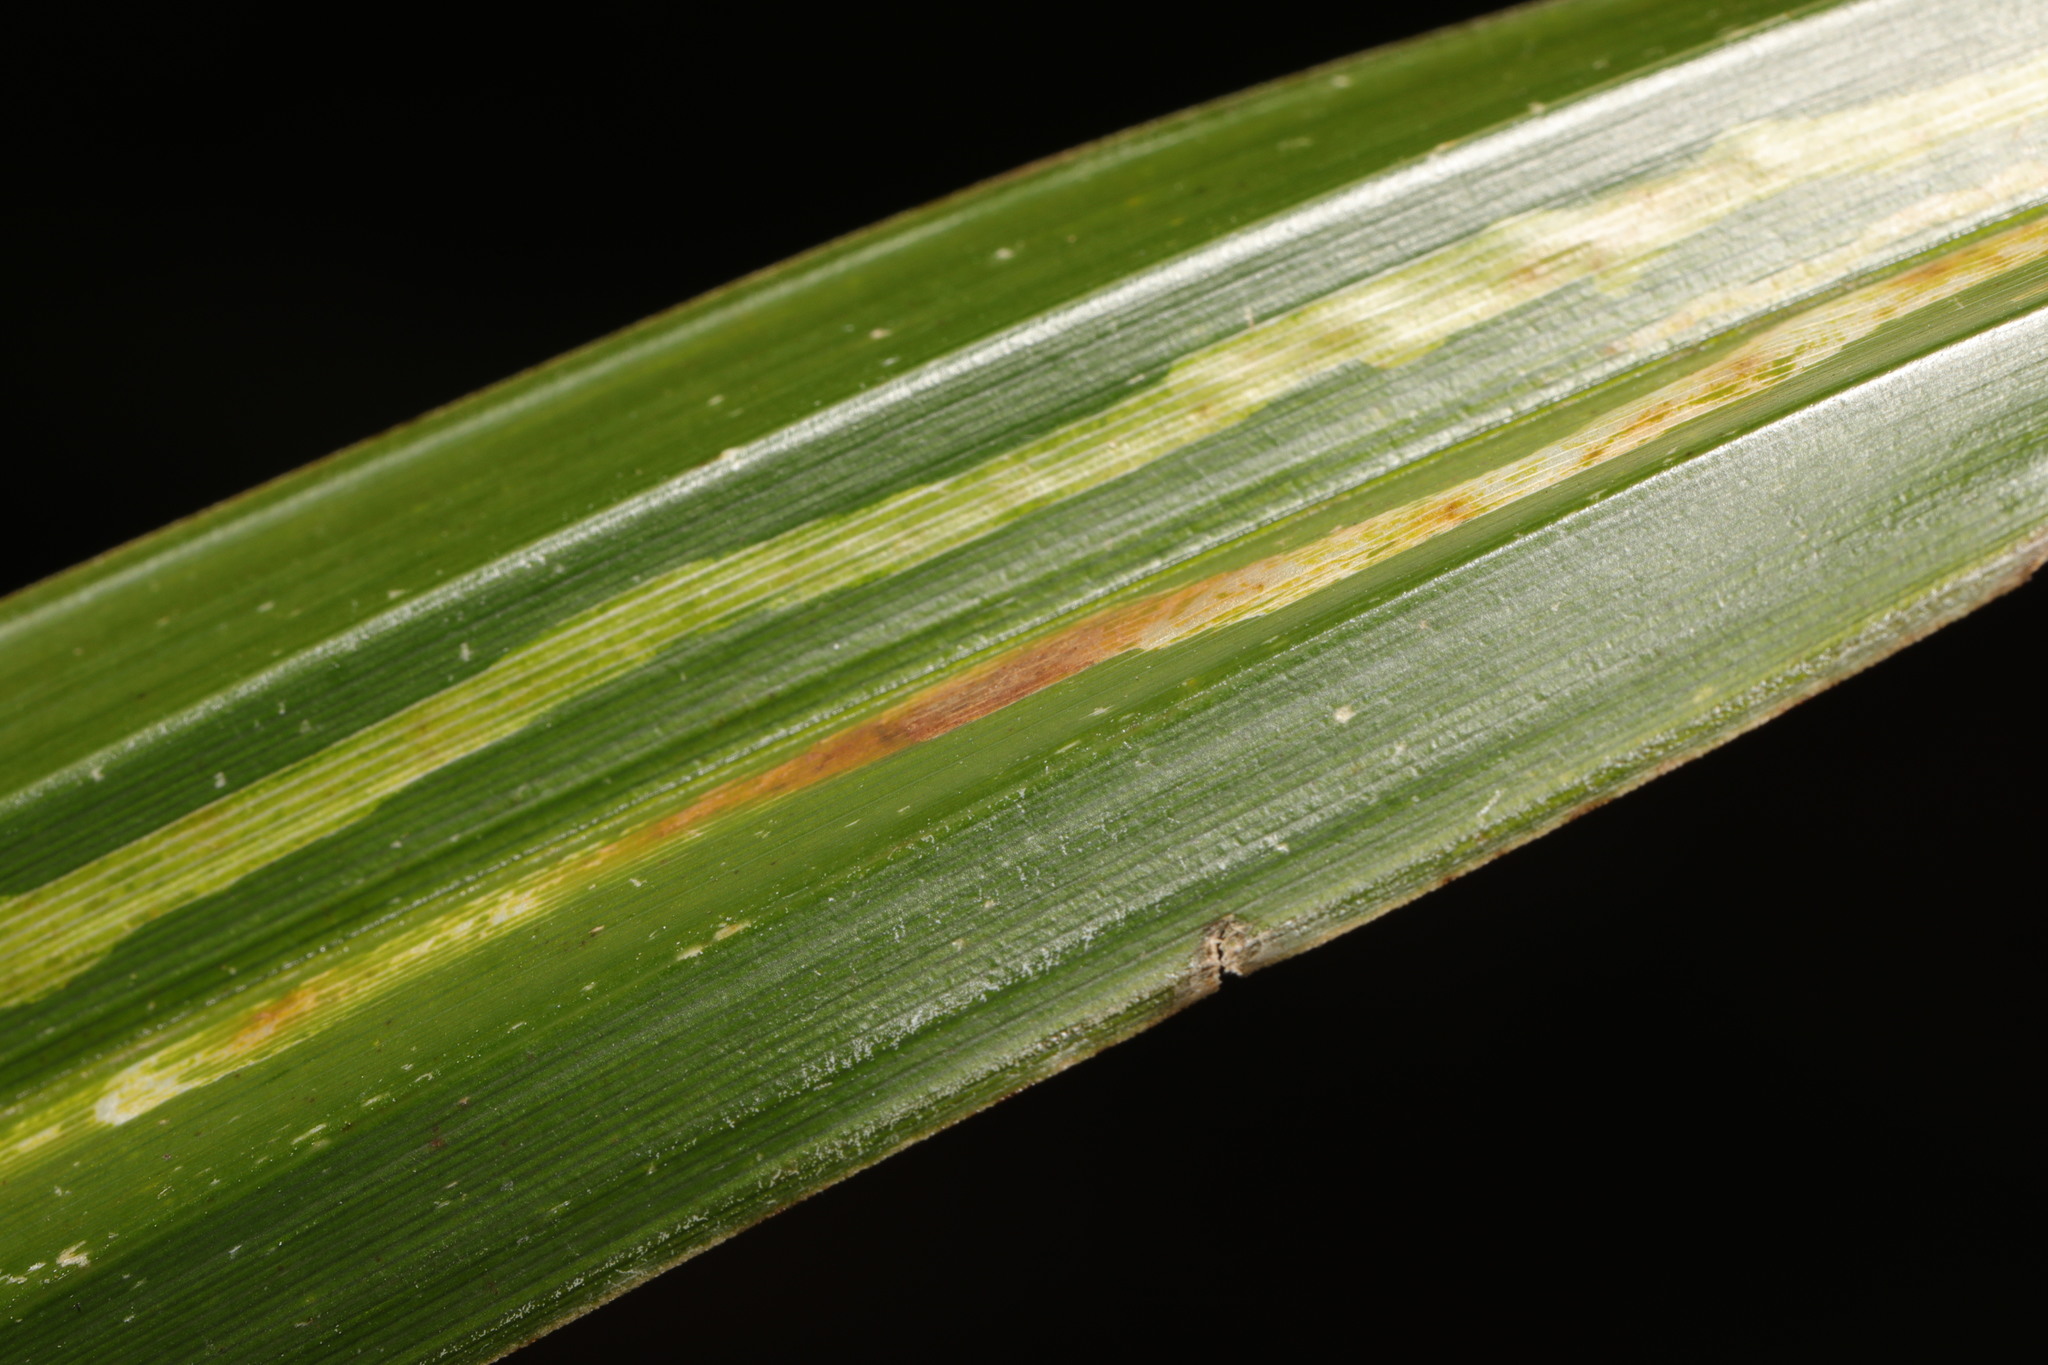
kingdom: Plantae
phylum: Tracheophyta
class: Liliopsida
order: Poales
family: Cyperaceae
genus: Carex
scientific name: Carex pendula
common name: Pendulous sedge
